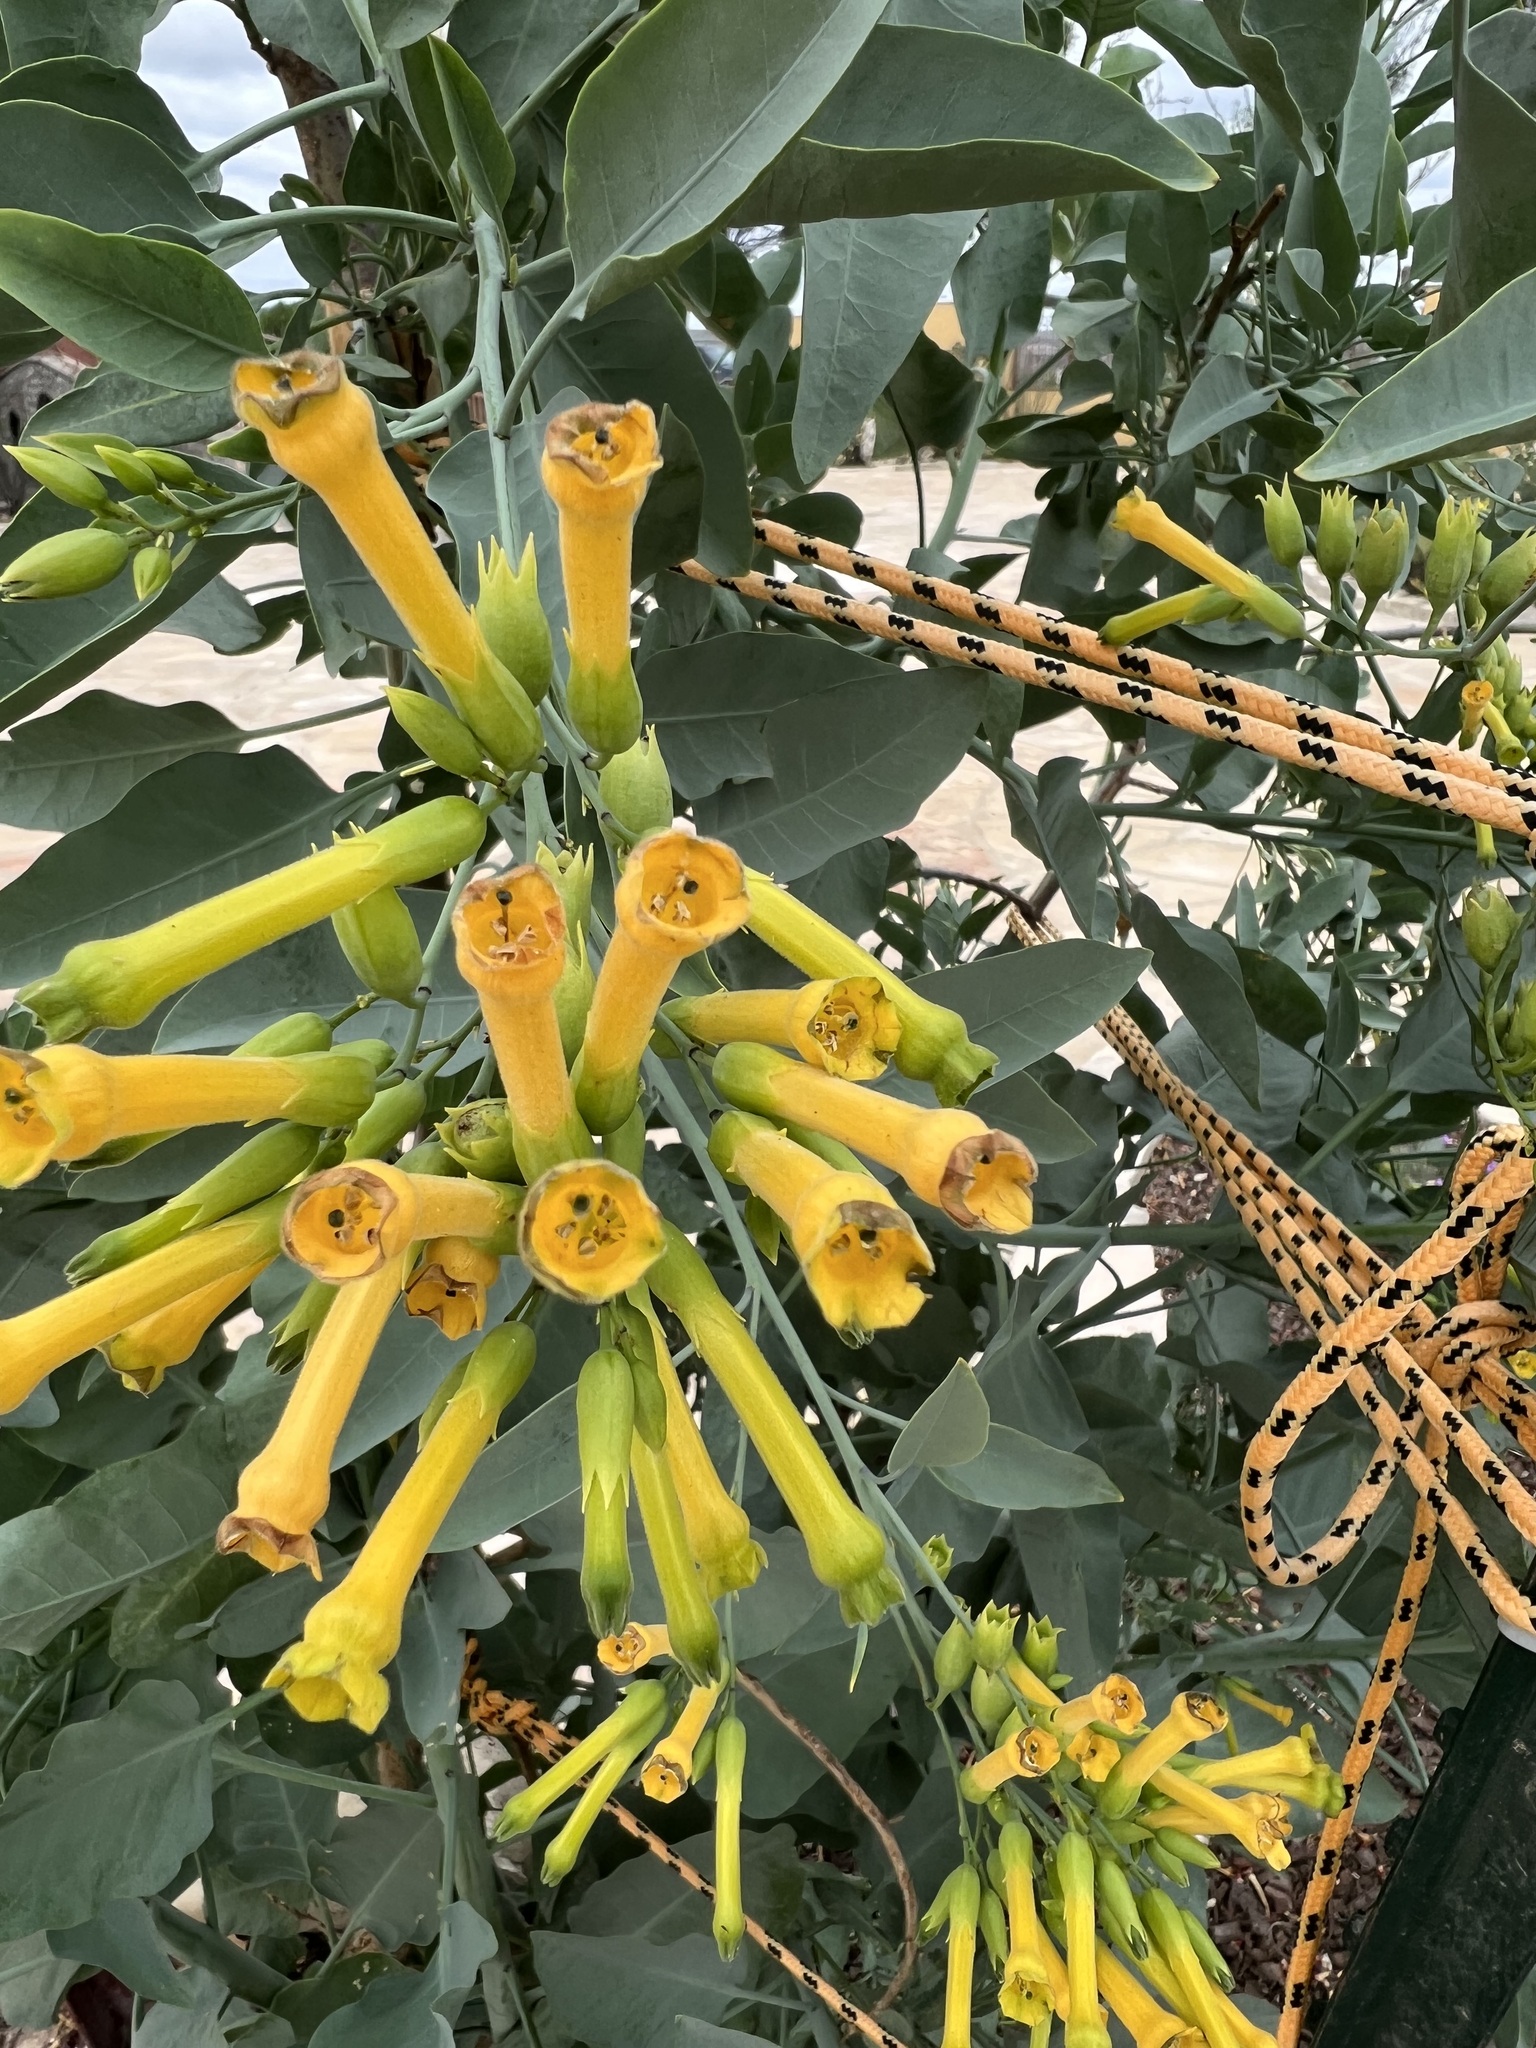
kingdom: Plantae
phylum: Tracheophyta
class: Magnoliopsida
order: Solanales
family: Solanaceae
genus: Nicotiana
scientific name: Nicotiana glauca
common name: Tree tobacco
